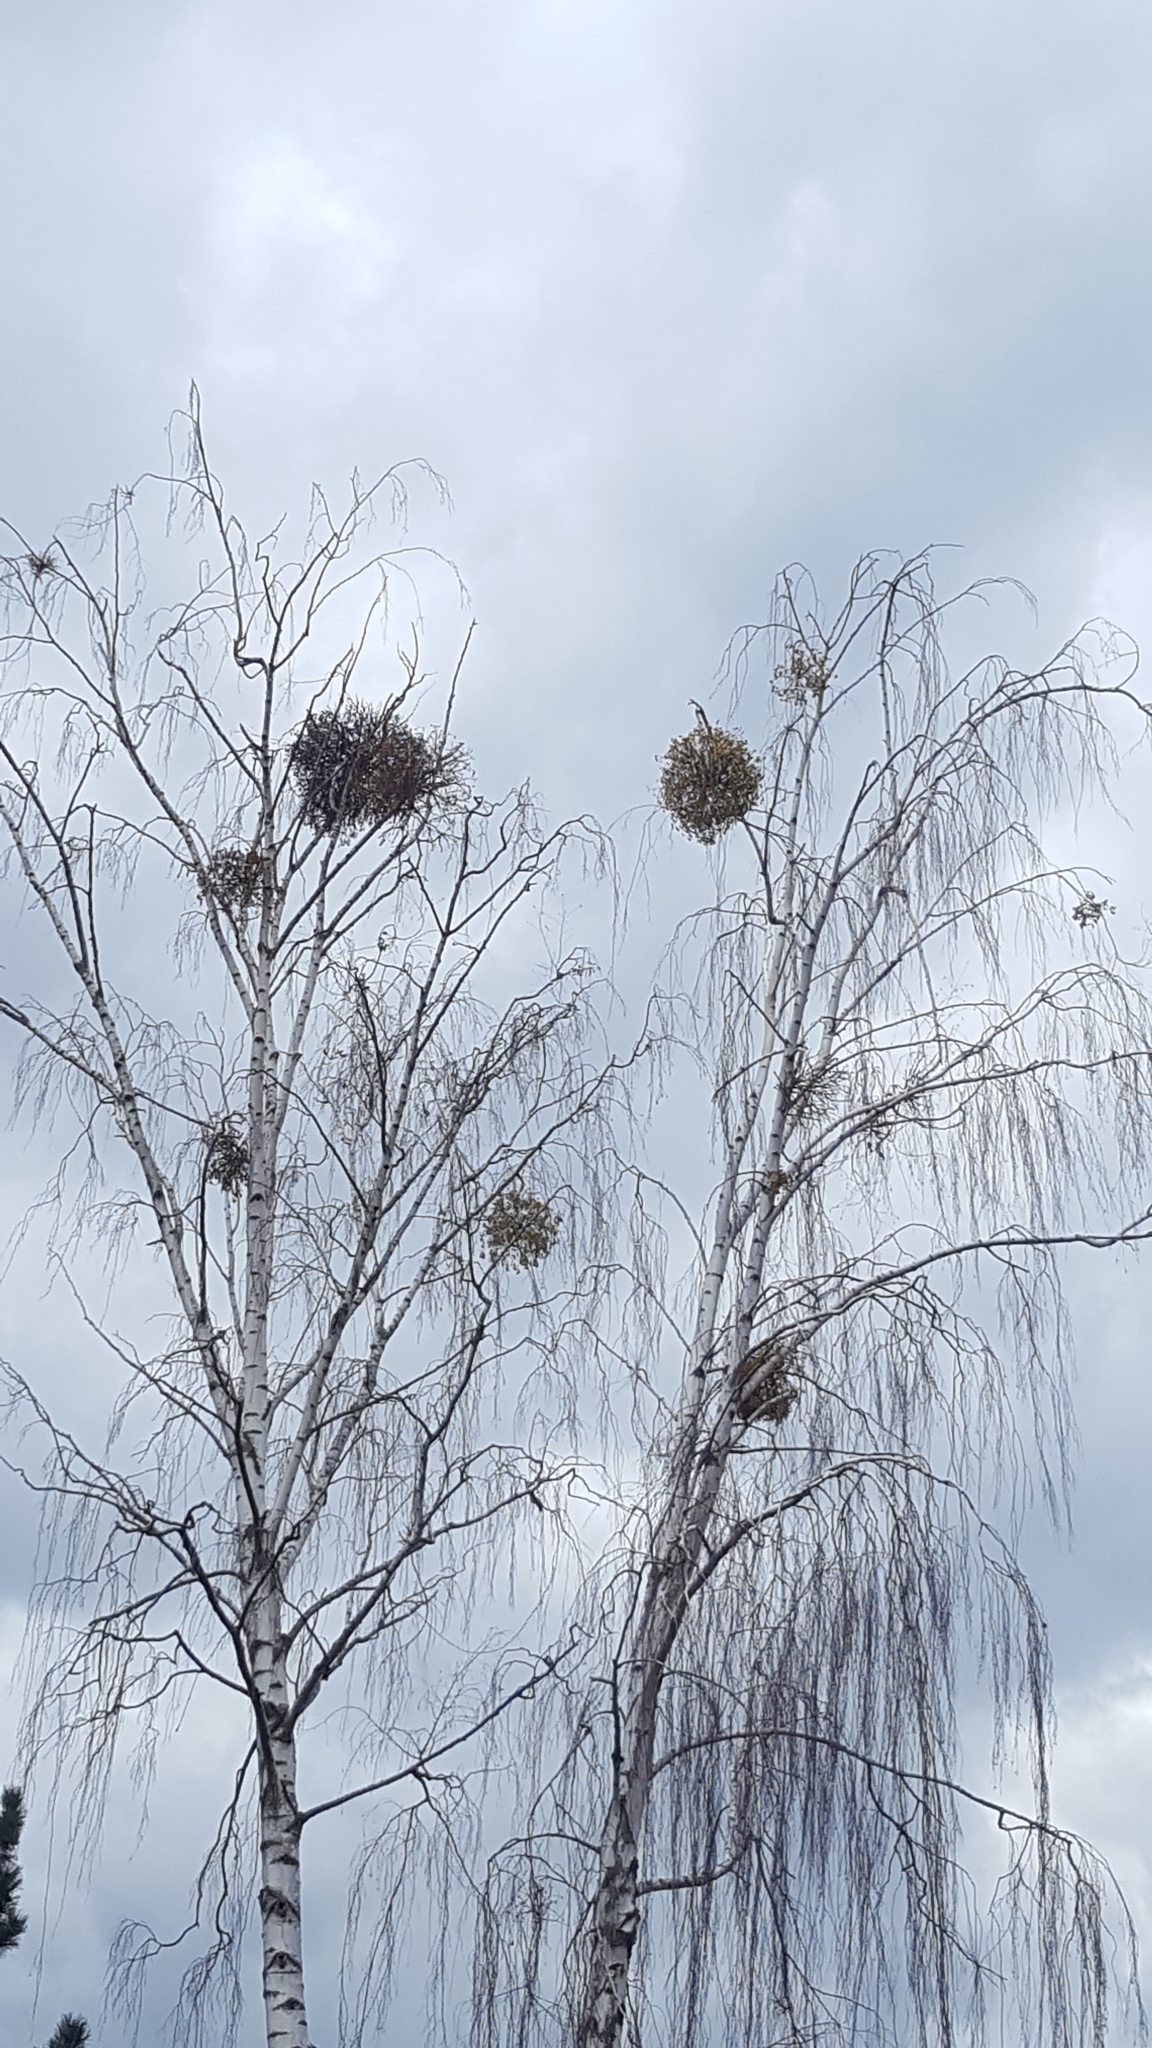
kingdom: Plantae
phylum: Tracheophyta
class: Magnoliopsida
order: Santalales
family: Viscaceae
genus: Viscum
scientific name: Viscum album
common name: Mistletoe
